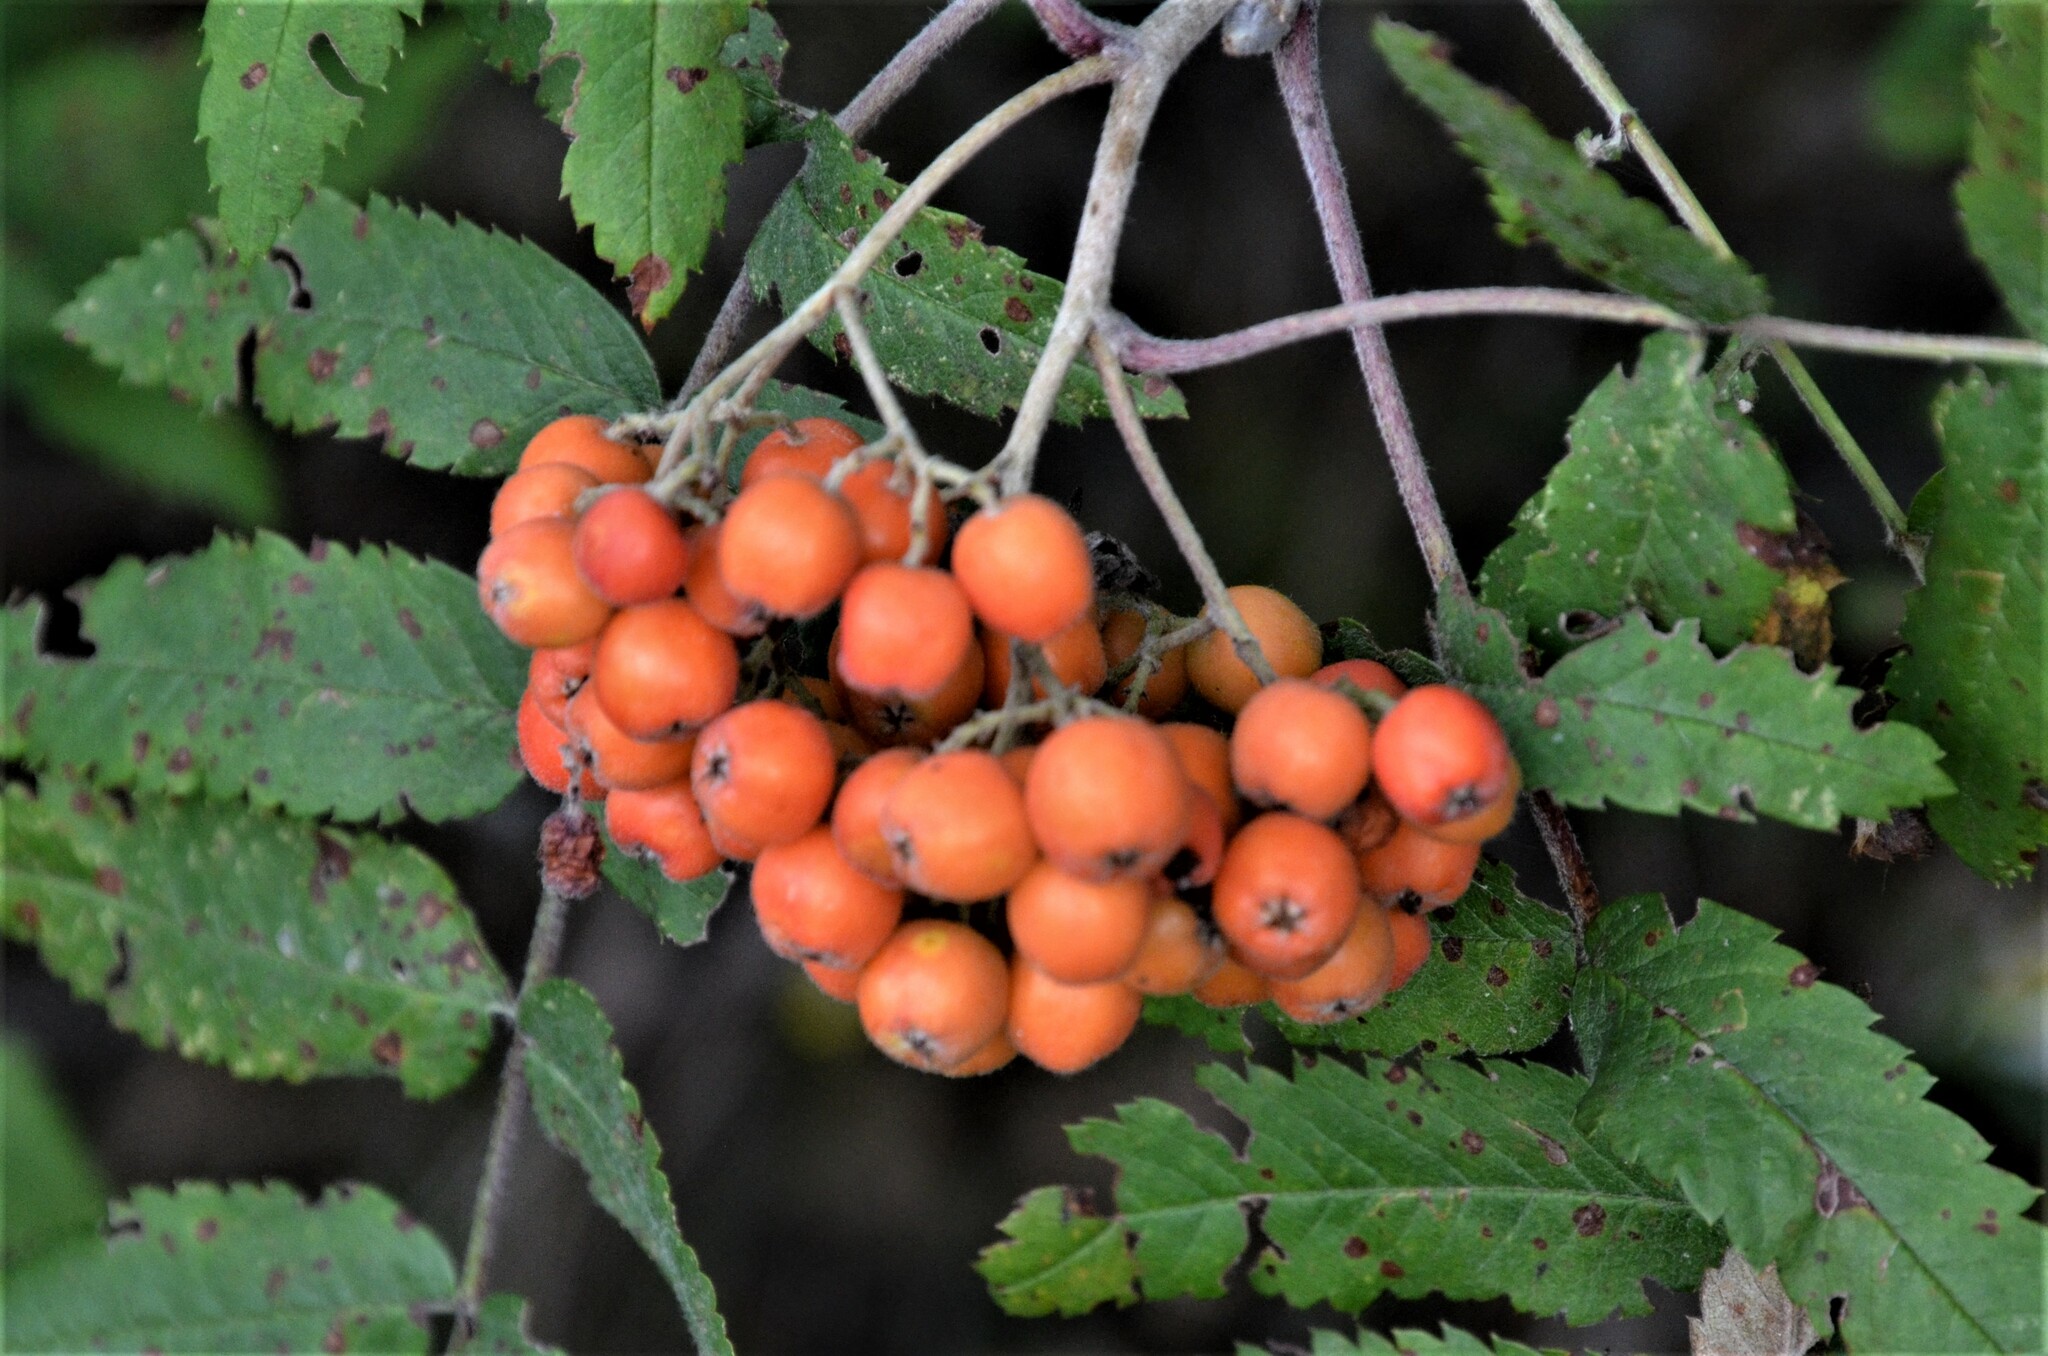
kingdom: Plantae
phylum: Tracheophyta
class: Magnoliopsida
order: Rosales
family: Rosaceae
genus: Sorbus
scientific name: Sorbus aucuparia
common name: Rowan
